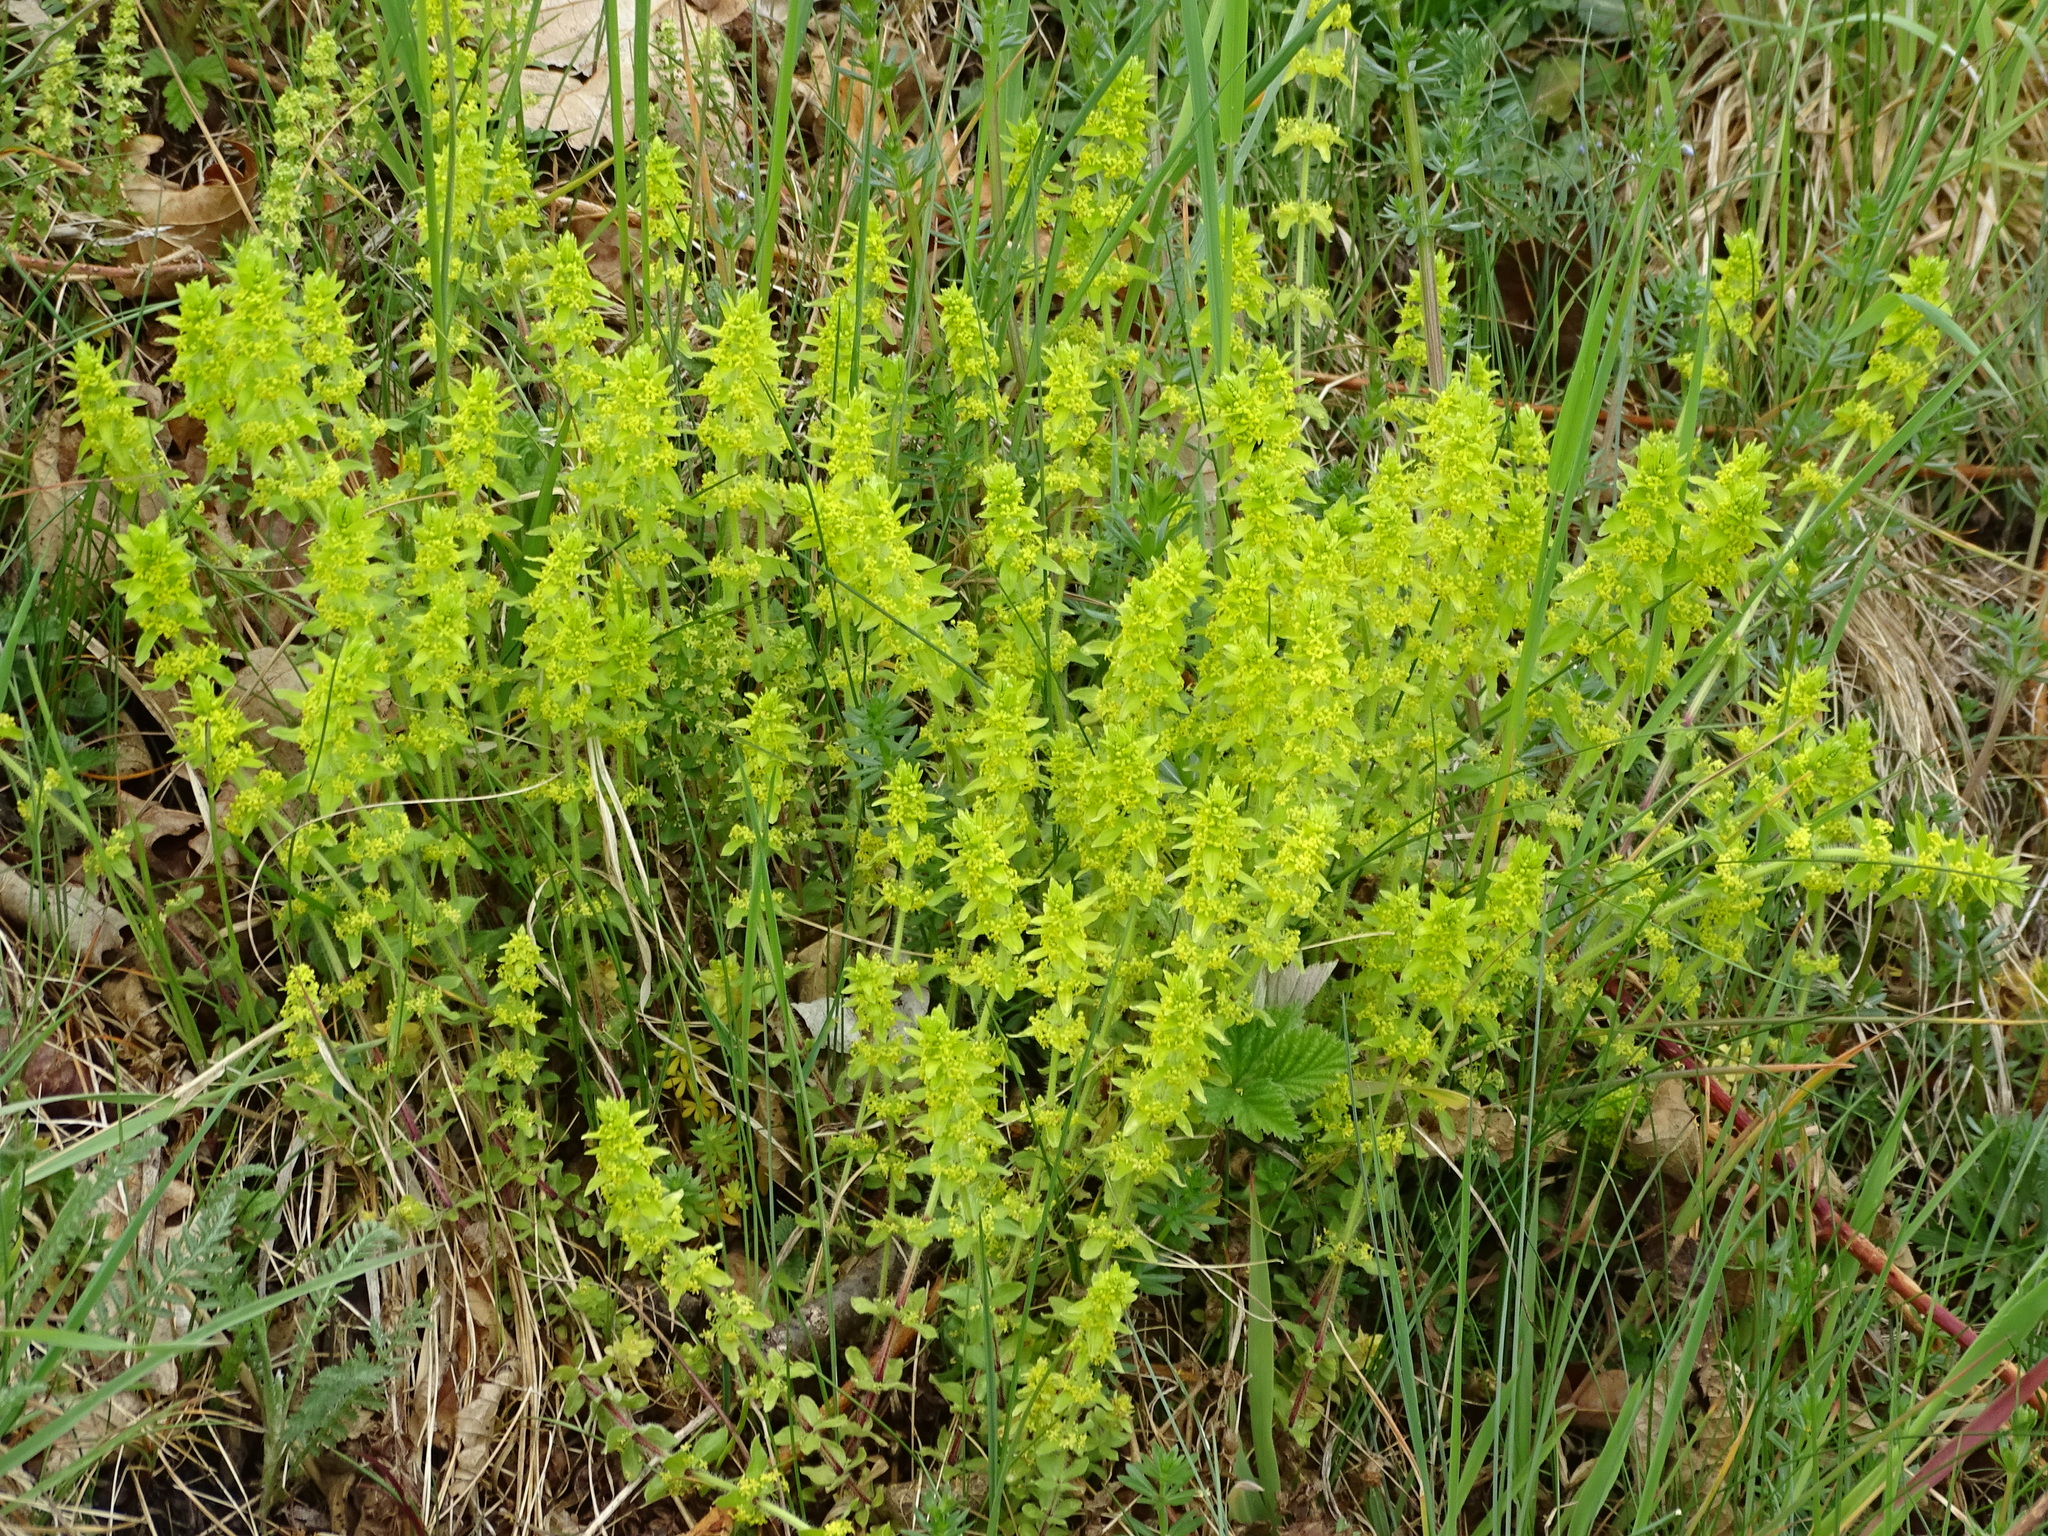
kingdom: Plantae
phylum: Tracheophyta
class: Magnoliopsida
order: Gentianales
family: Rubiaceae
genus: Cruciata
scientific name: Cruciata laevipes
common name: Crosswort
